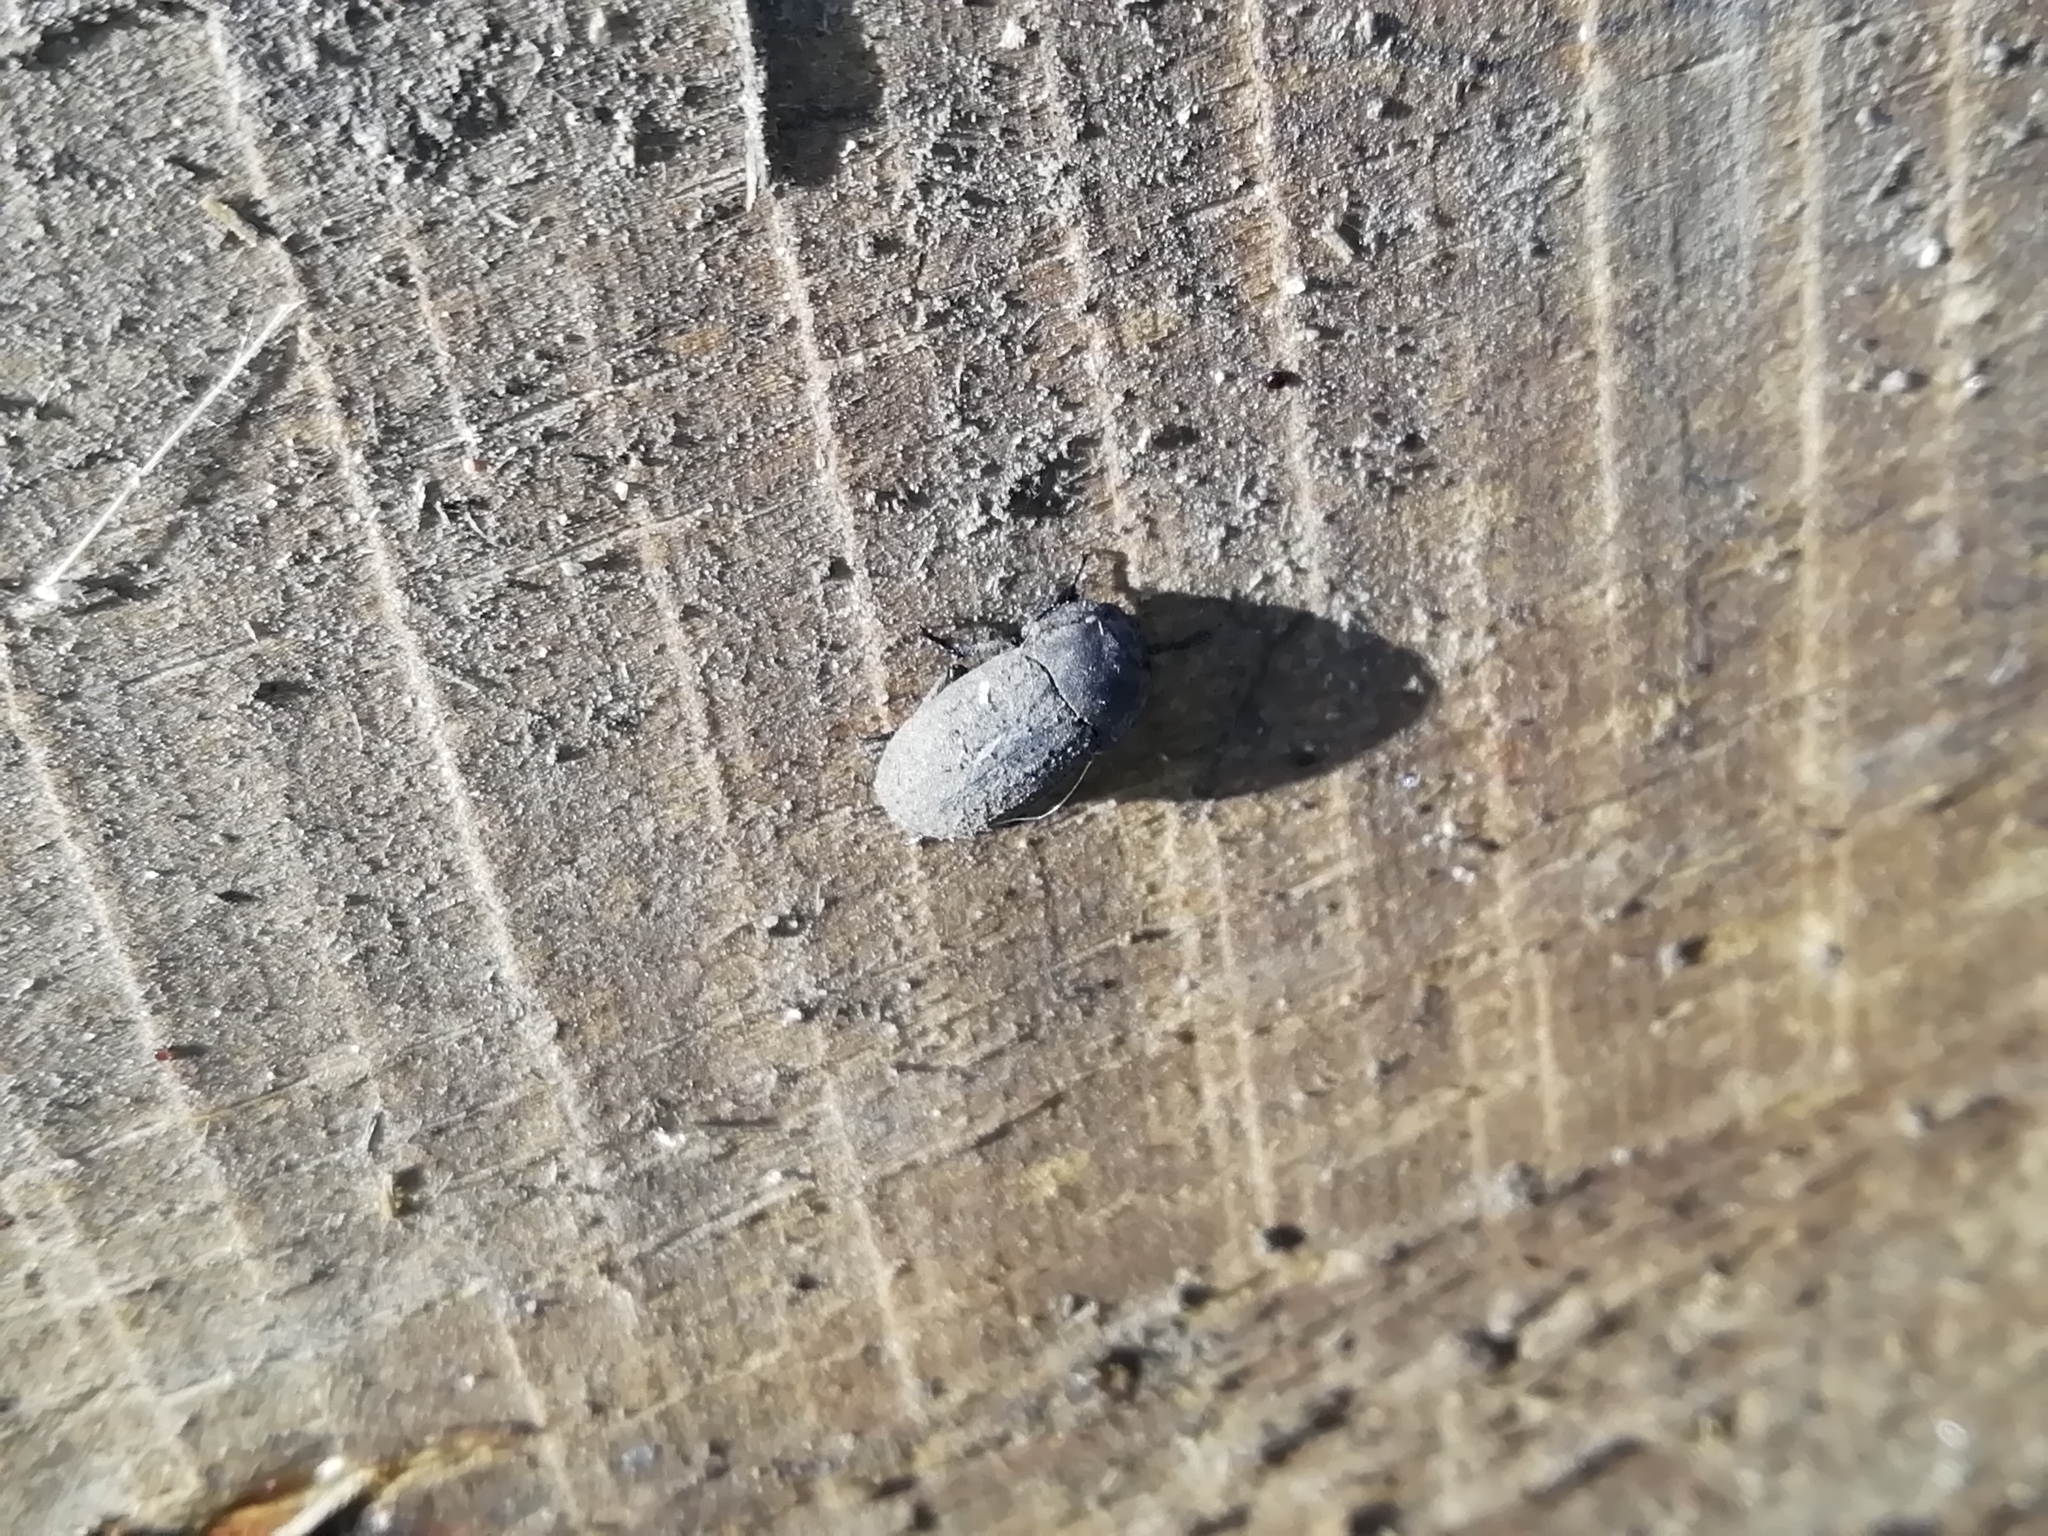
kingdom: Animalia
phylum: Arthropoda
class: Insecta
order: Coleoptera
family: Tenebrionidae
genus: Opatrum
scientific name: Opatrum sabulosum
